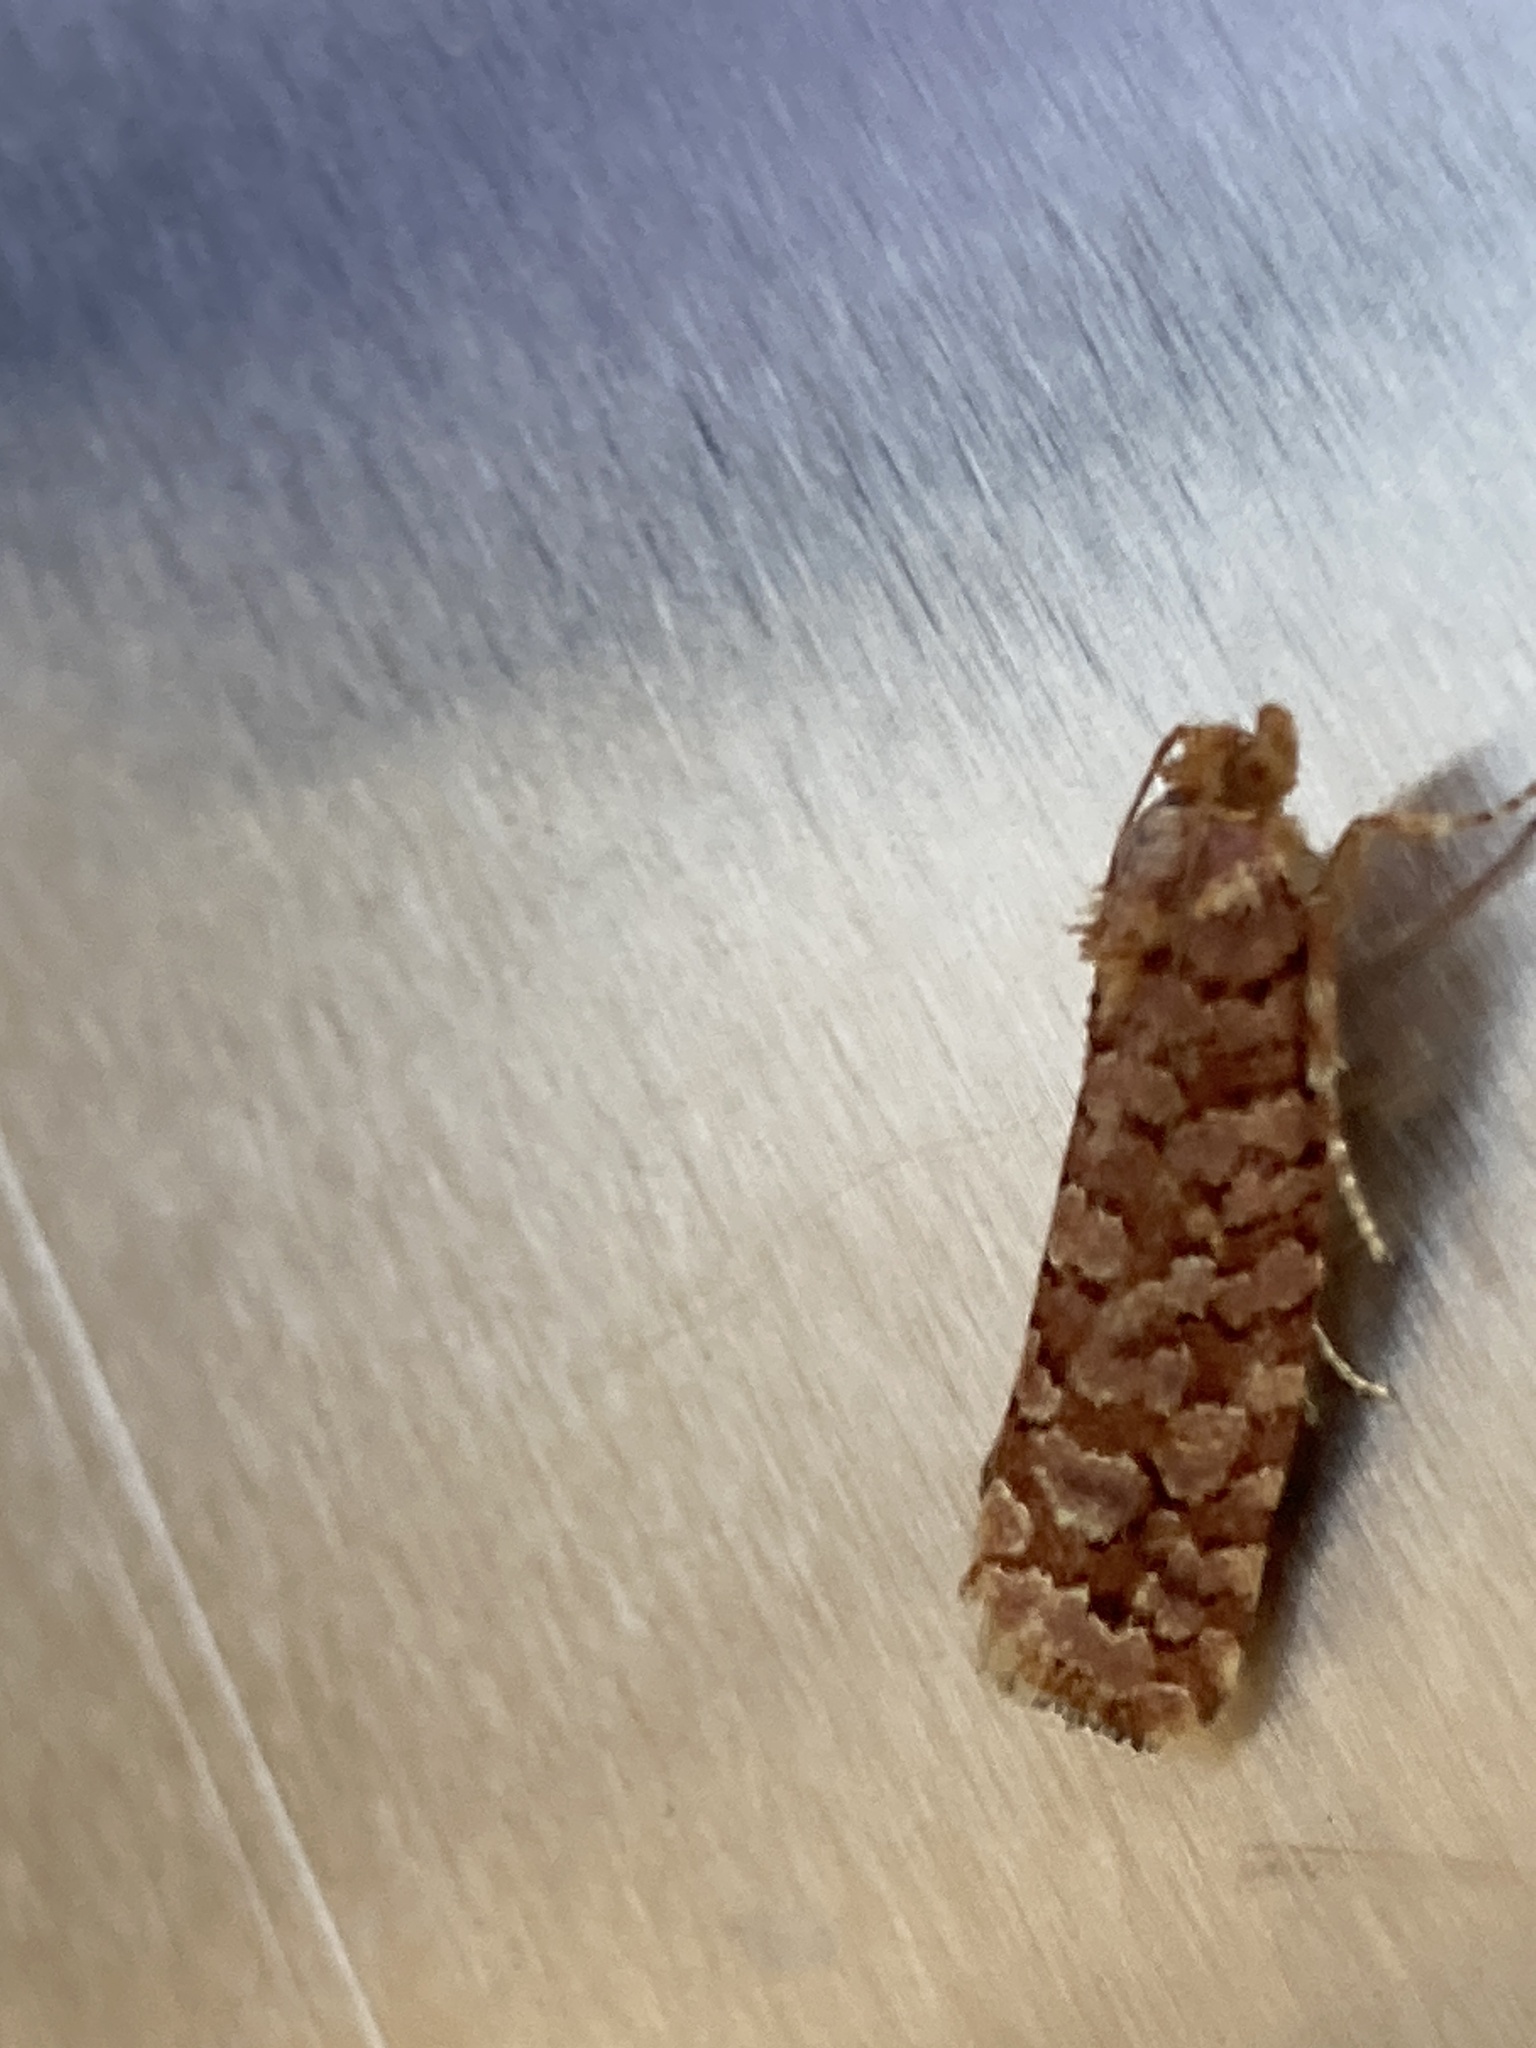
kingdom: Animalia
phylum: Arthropoda
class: Insecta
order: Lepidoptera
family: Tortricidae
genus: Lozotaeniodes
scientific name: Lozotaeniodes formosana
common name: Orange pine twist
